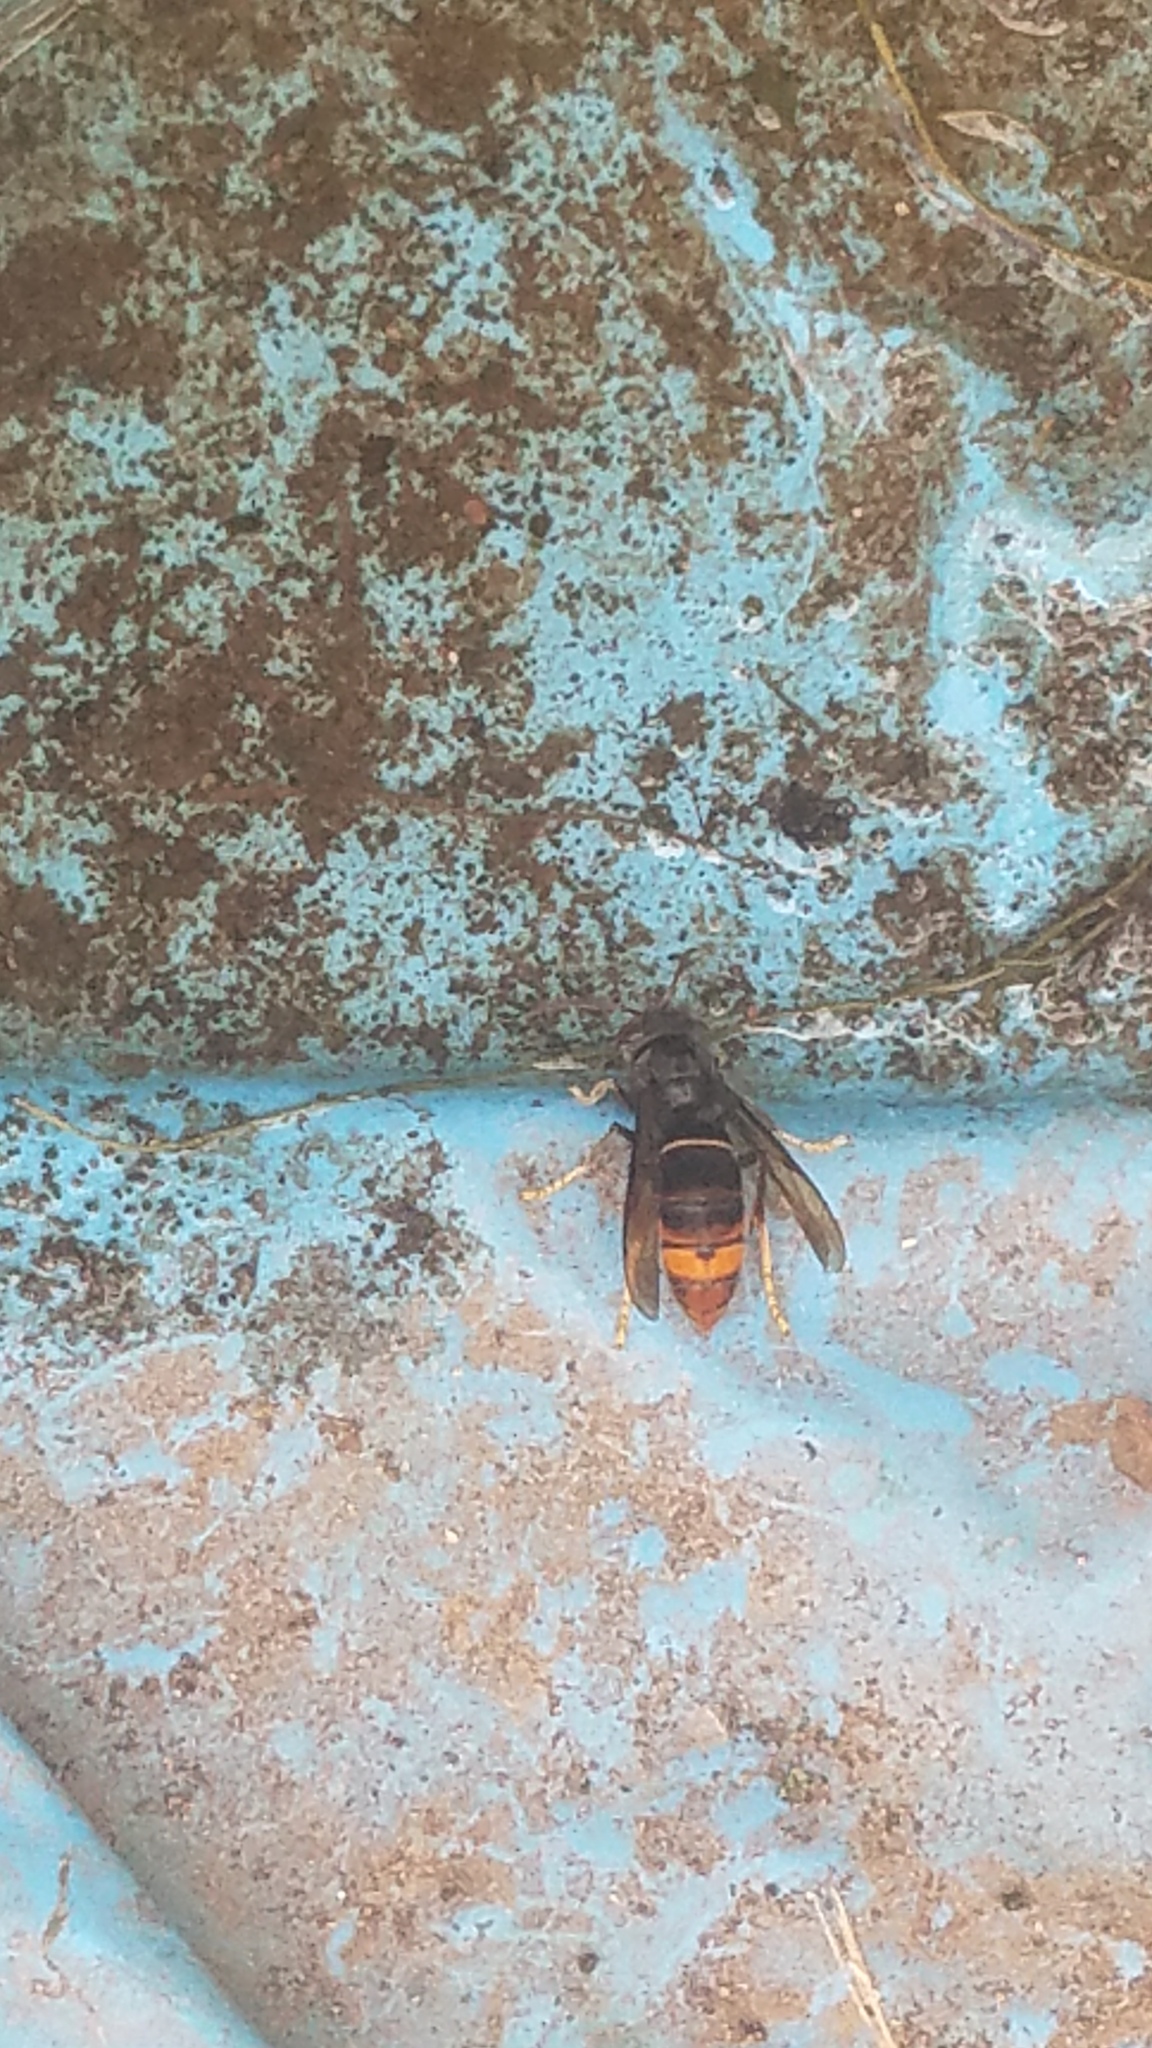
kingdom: Animalia
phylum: Arthropoda
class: Insecta
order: Hymenoptera
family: Vespidae
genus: Vespa
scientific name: Vespa velutina
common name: Asian hornet
